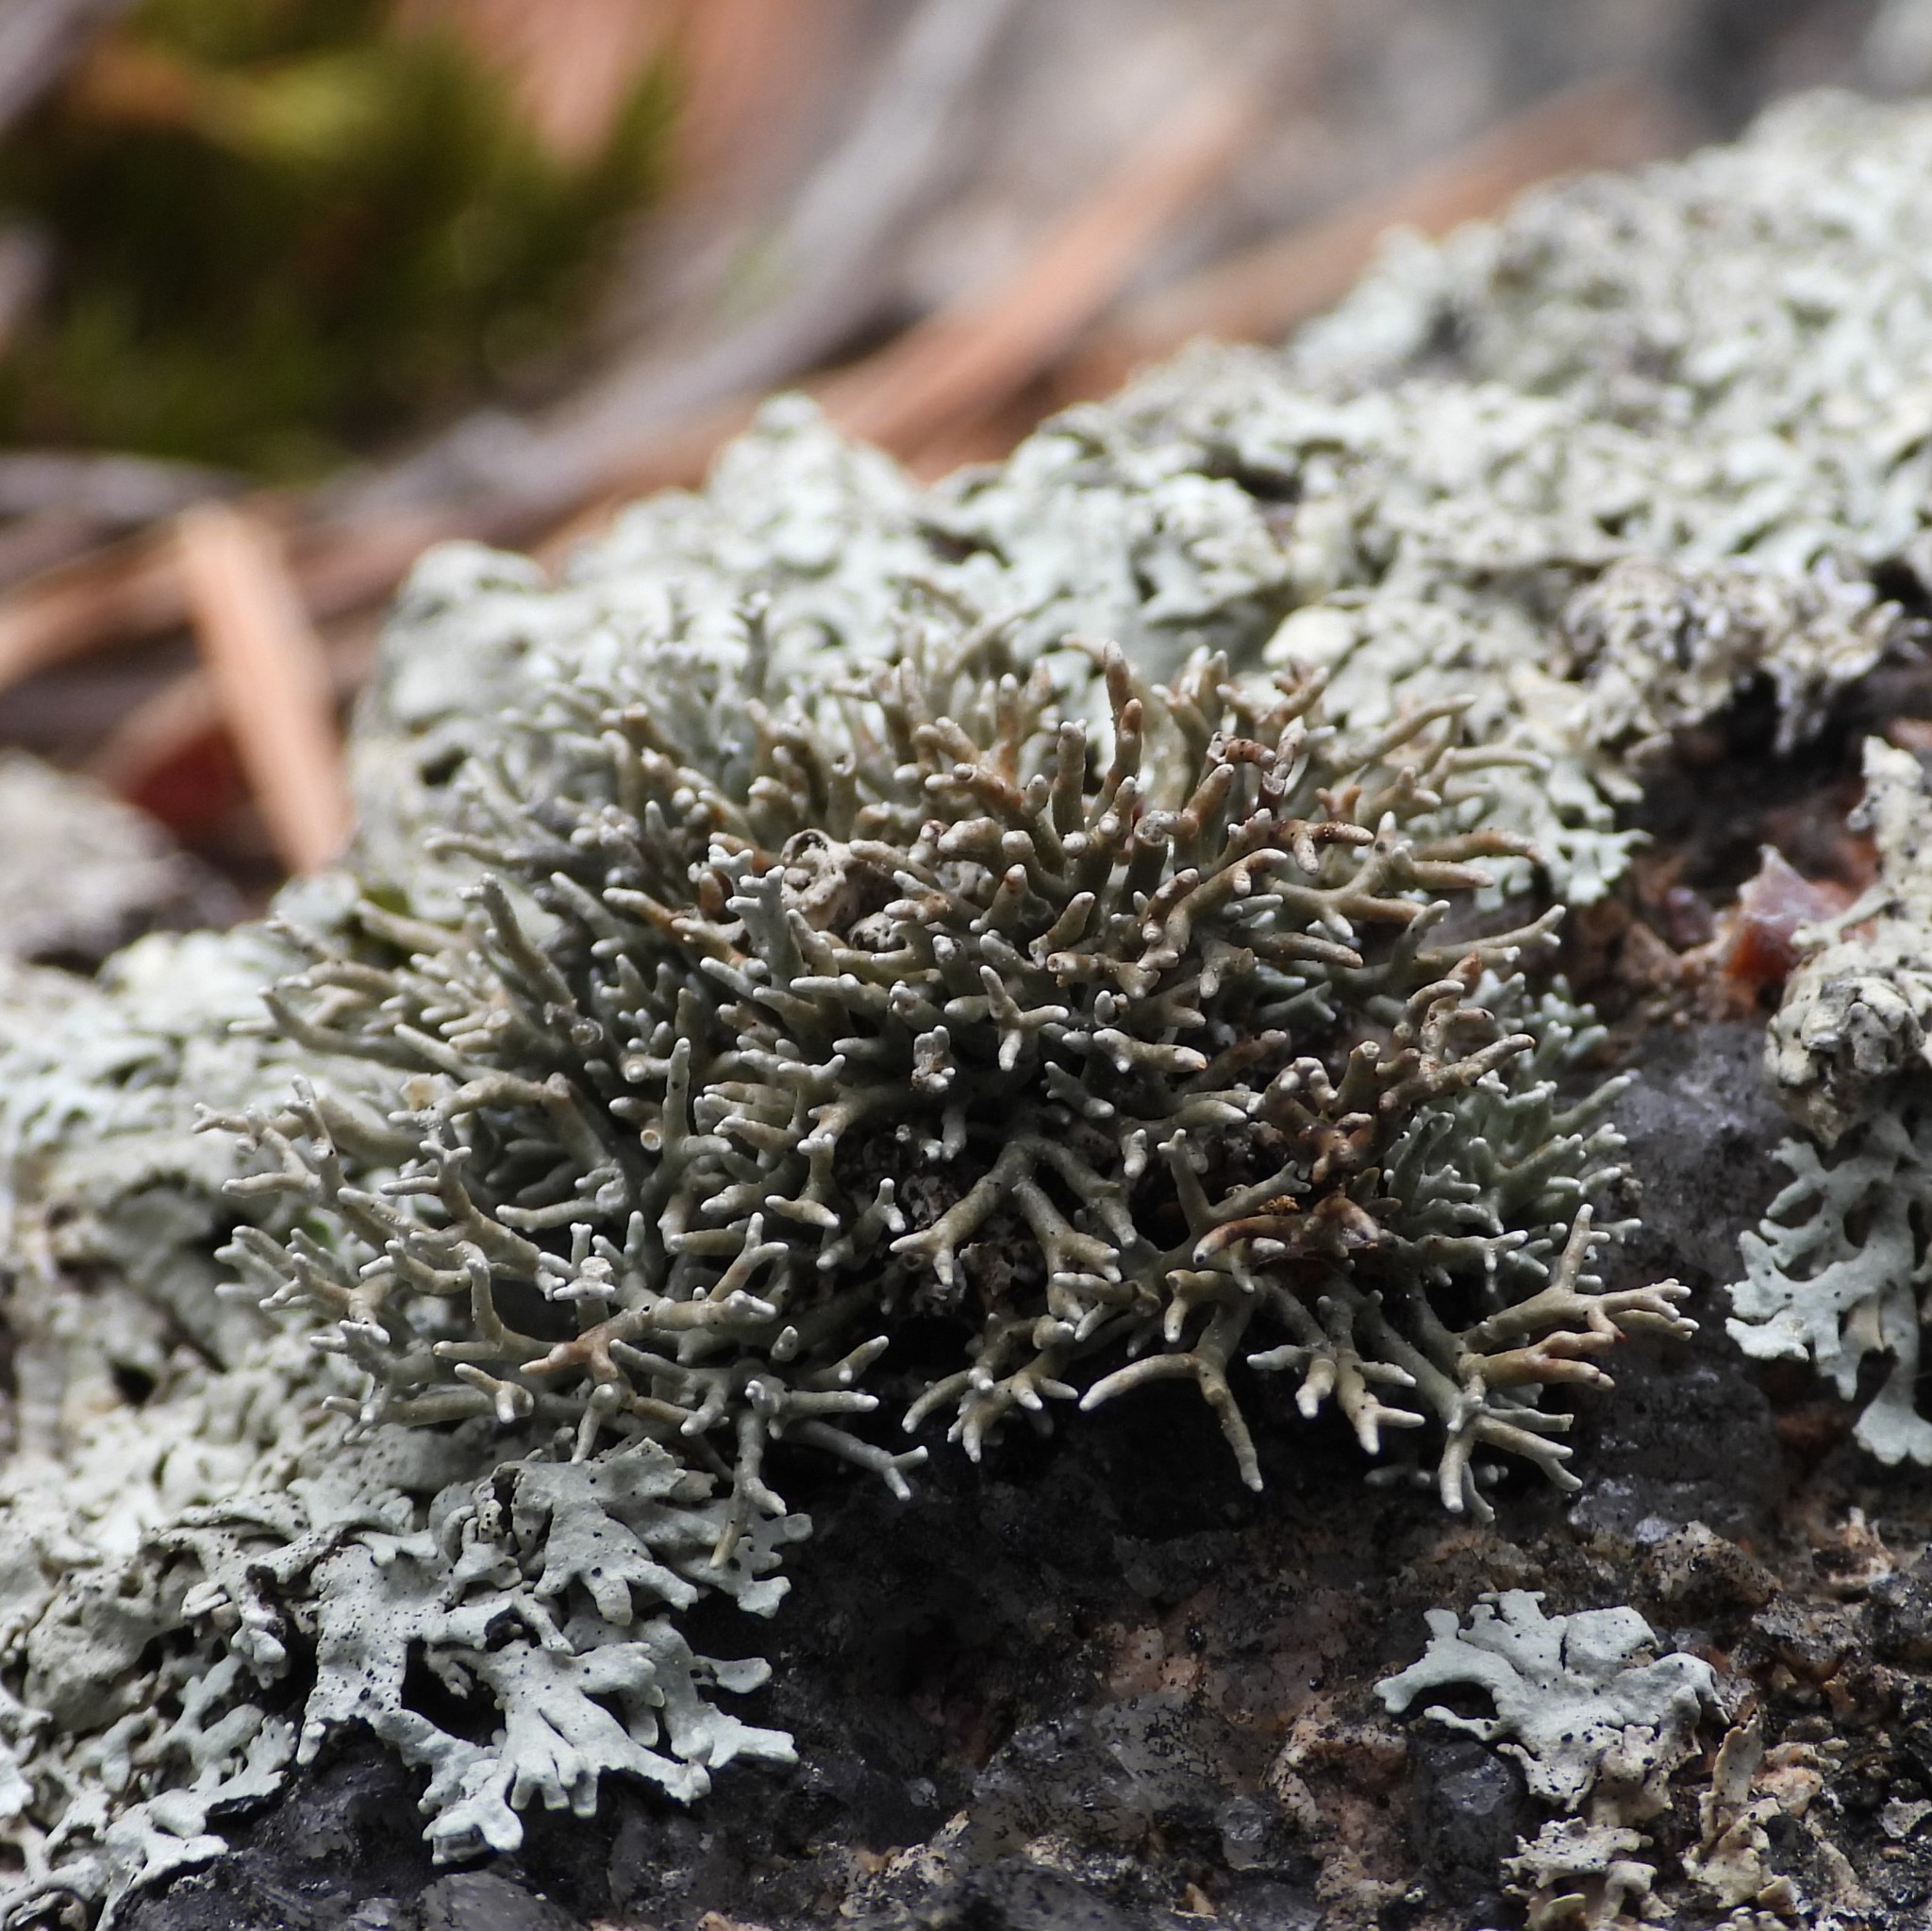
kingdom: Fungi
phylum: Ascomycota
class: Lecanoromycetes
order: Lecanorales
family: Sphaerophoraceae
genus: Sphaerophorus
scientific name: Sphaerophorus fragilis
